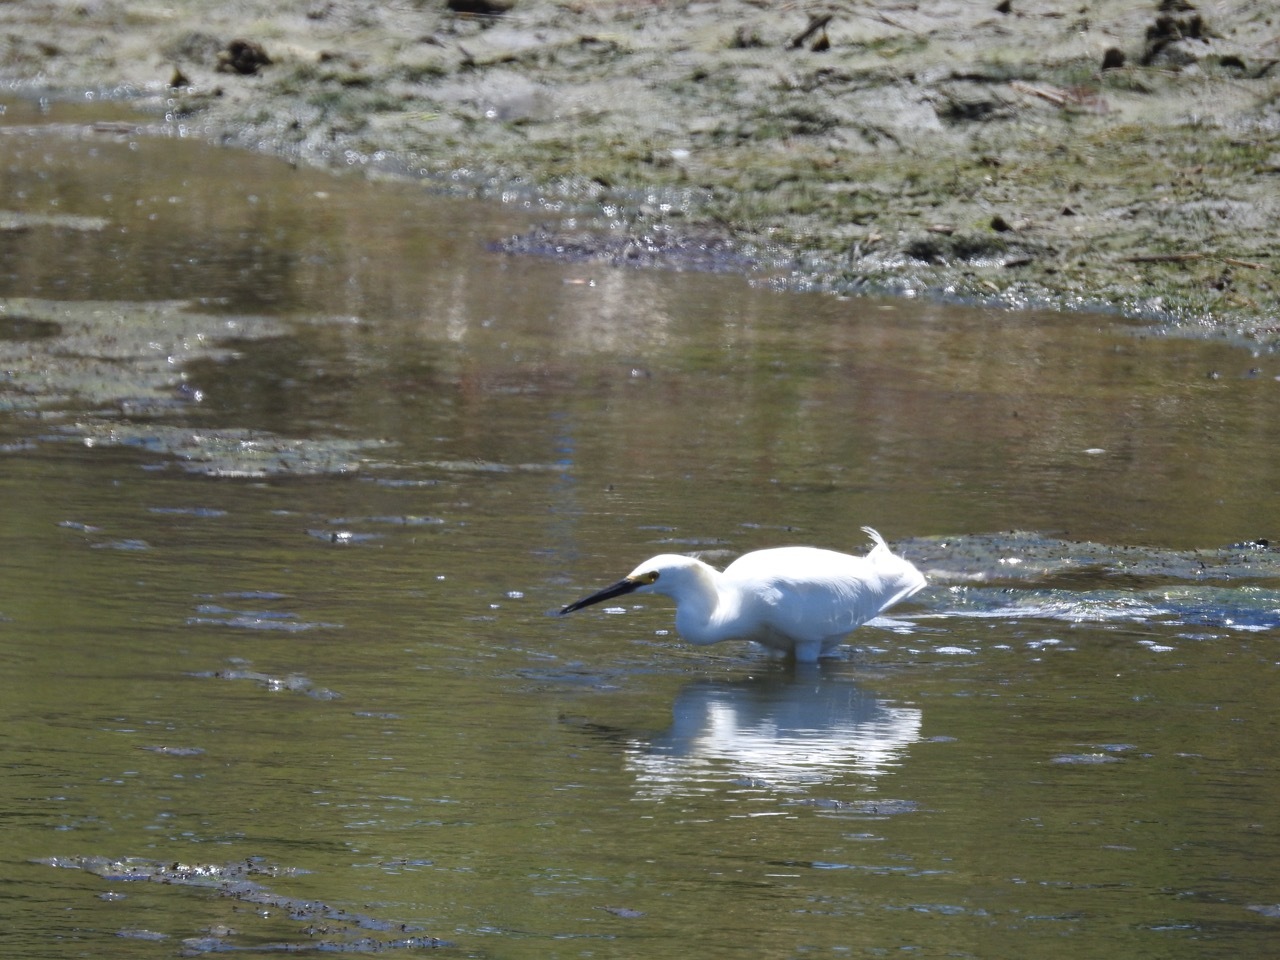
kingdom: Animalia
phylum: Chordata
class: Aves
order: Pelecaniformes
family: Ardeidae
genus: Egretta
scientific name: Egretta thula
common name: Snowy egret
